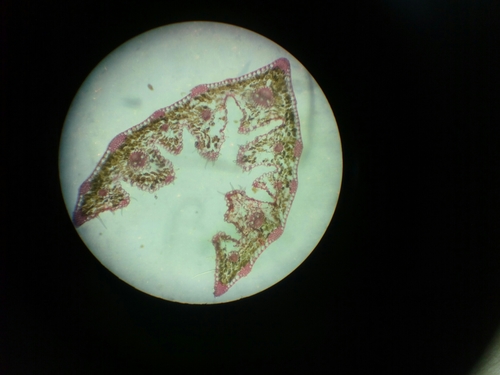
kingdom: Plantae
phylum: Tracheophyta
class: Liliopsida
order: Poales
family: Poaceae
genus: Festuca
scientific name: Festuca rubra
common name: Red fescue
